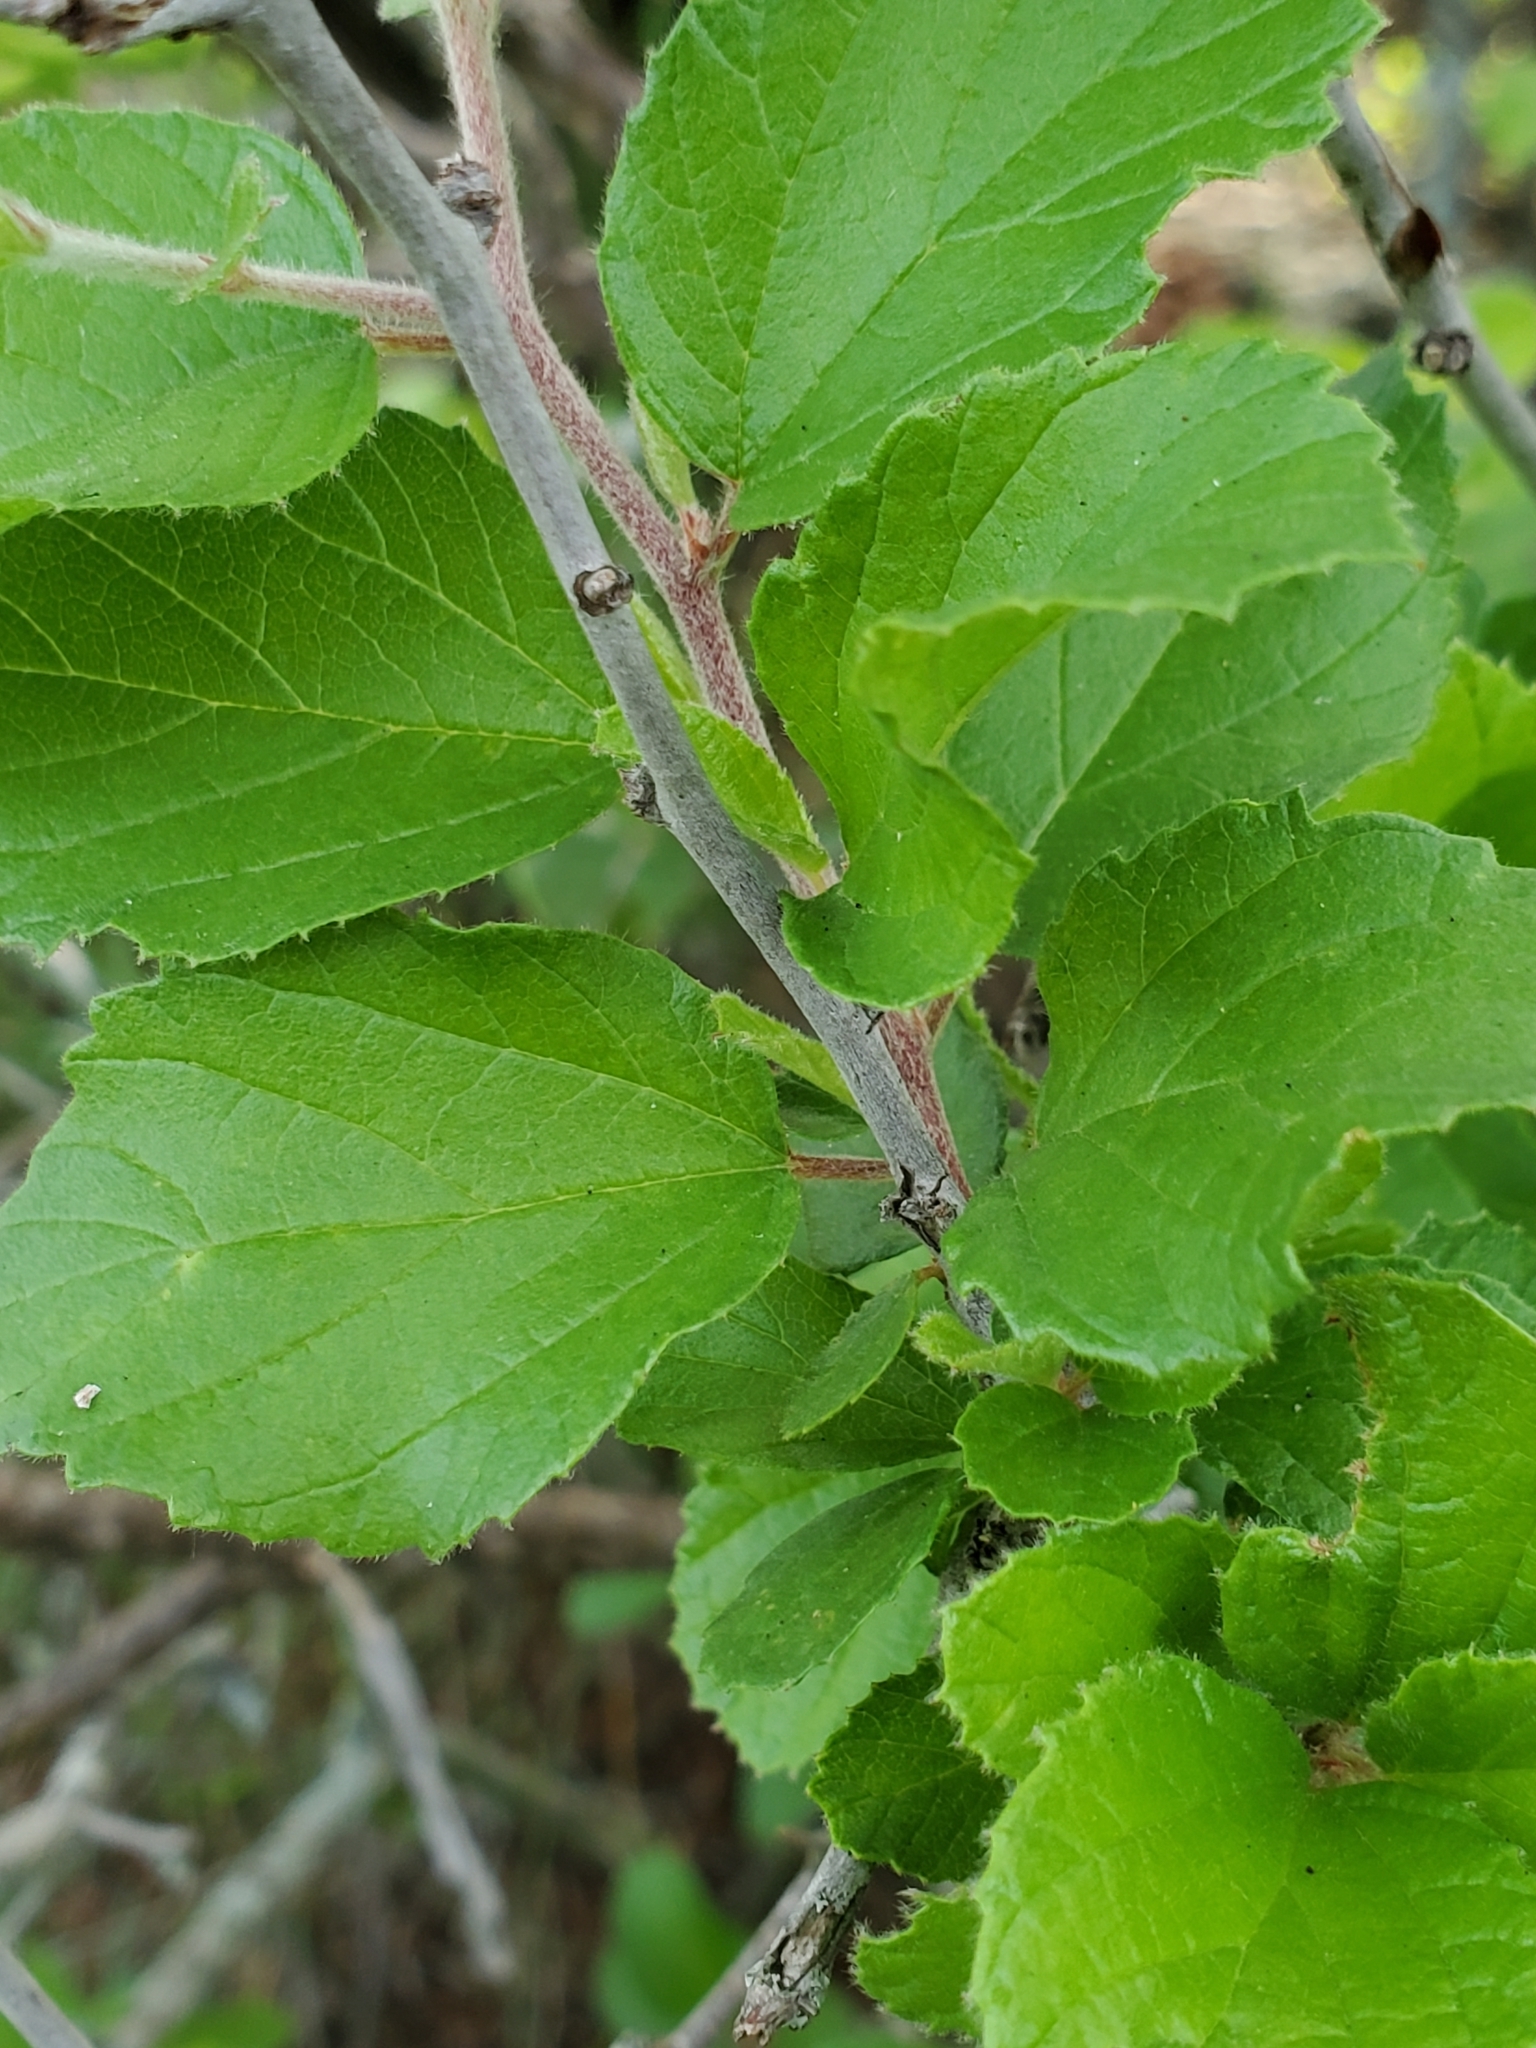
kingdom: Plantae
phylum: Tracheophyta
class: Magnoliopsida
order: Rosales
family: Rhamnaceae
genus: Colubrina
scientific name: Colubrina texensis
